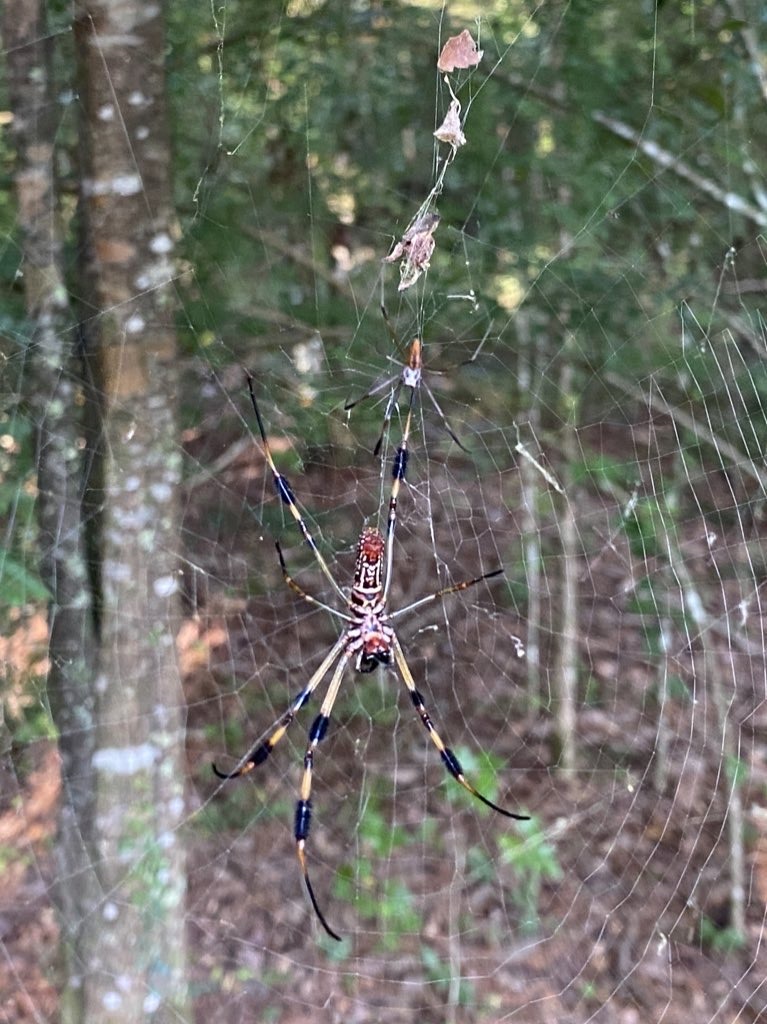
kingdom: Animalia
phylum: Arthropoda
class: Arachnida
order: Araneae
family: Araneidae
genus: Trichonephila
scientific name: Trichonephila clavipes
